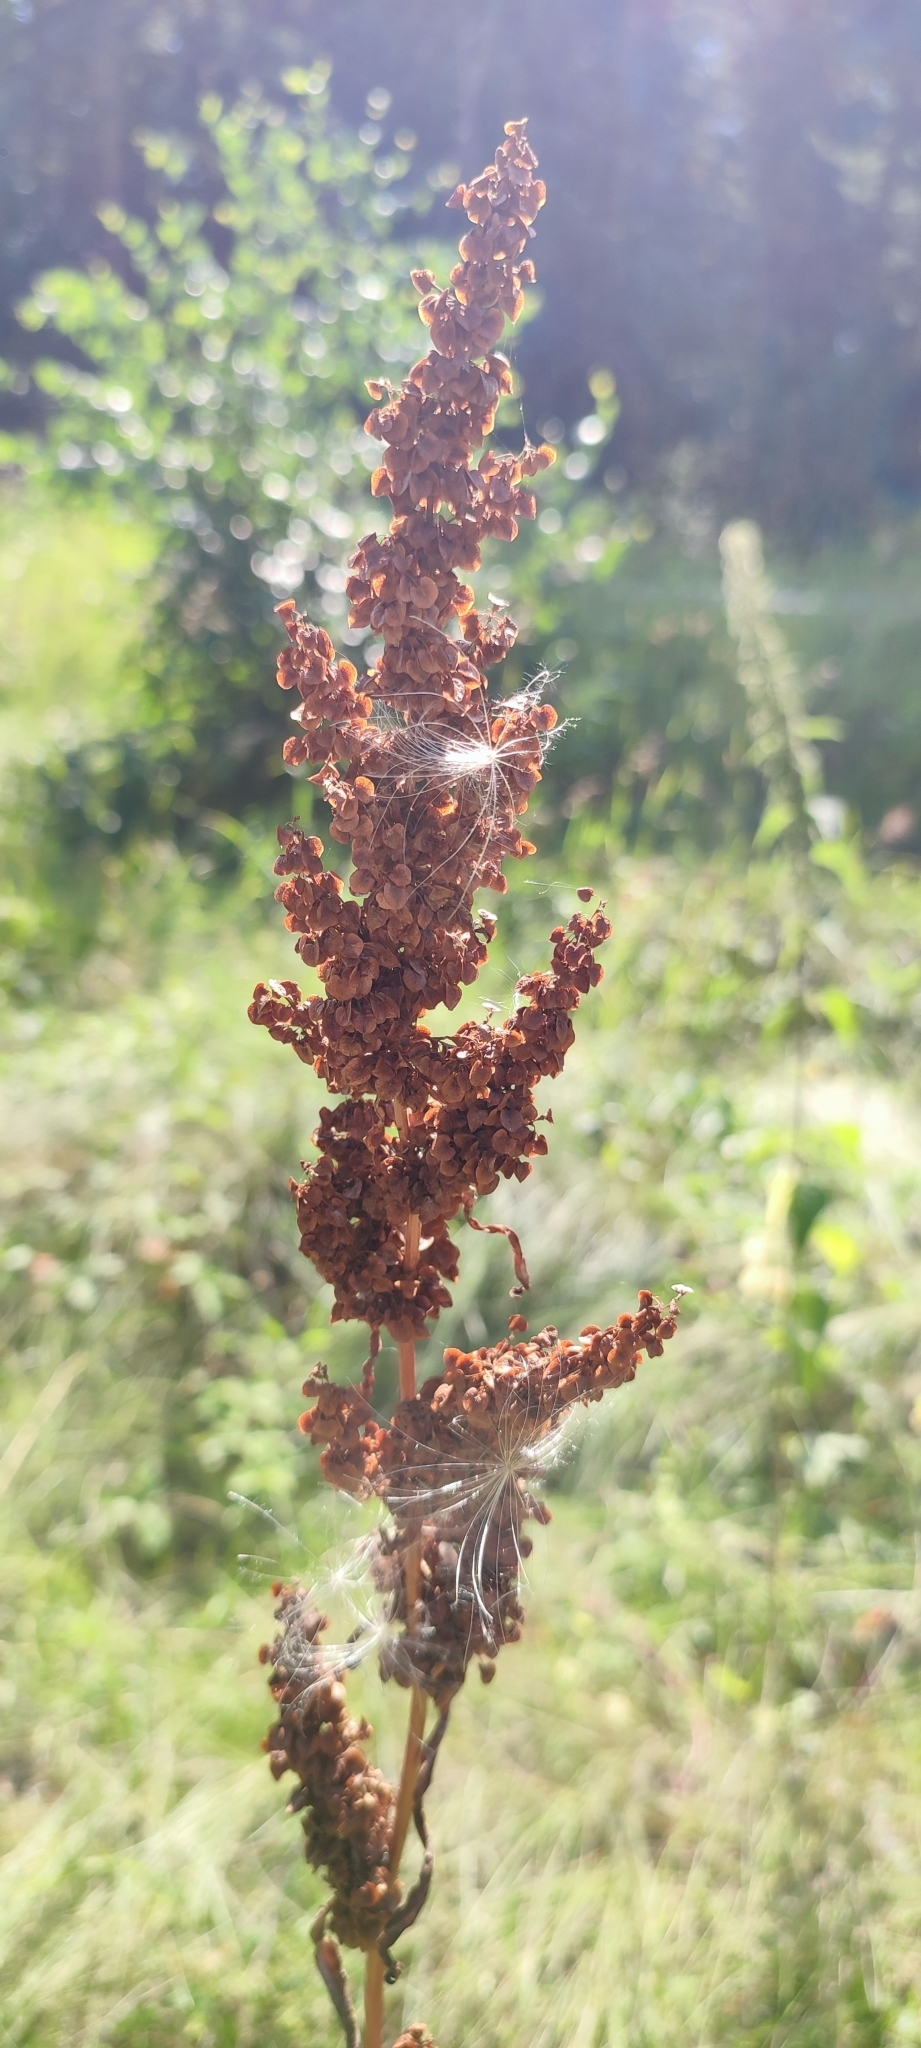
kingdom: Plantae
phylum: Tracheophyta
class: Magnoliopsida
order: Caryophyllales
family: Polygonaceae
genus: Rumex
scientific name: Rumex pseudonatronatus
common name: Field dock
